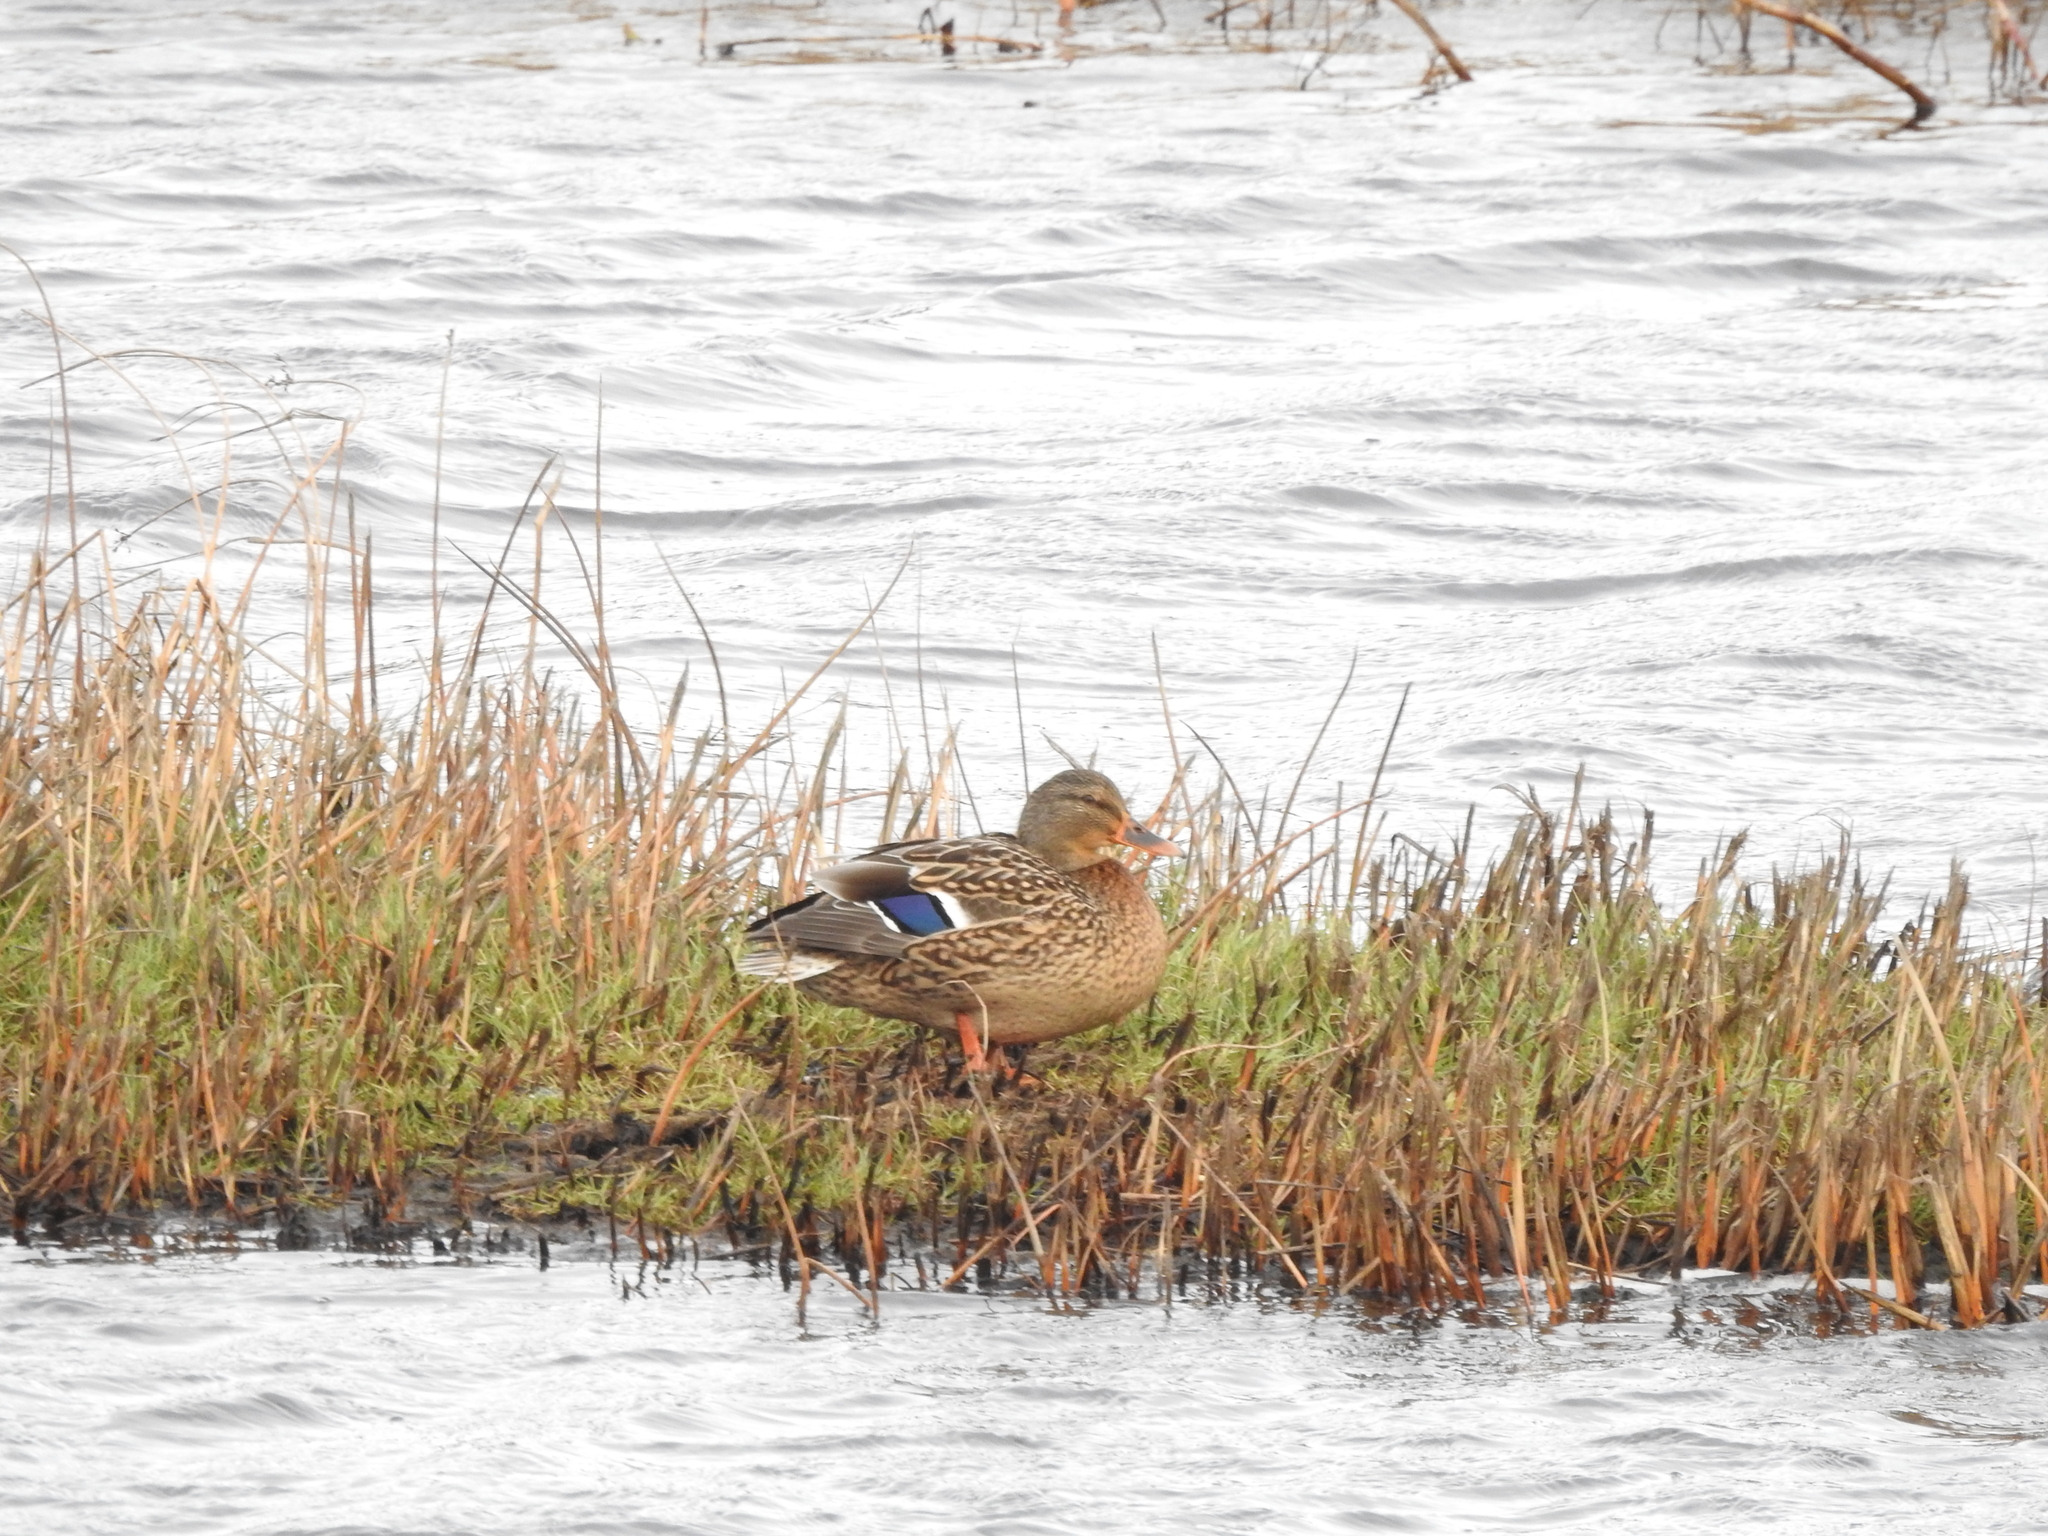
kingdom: Animalia
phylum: Chordata
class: Aves
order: Anseriformes
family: Anatidae
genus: Anas
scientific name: Anas platyrhynchos
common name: Mallard
